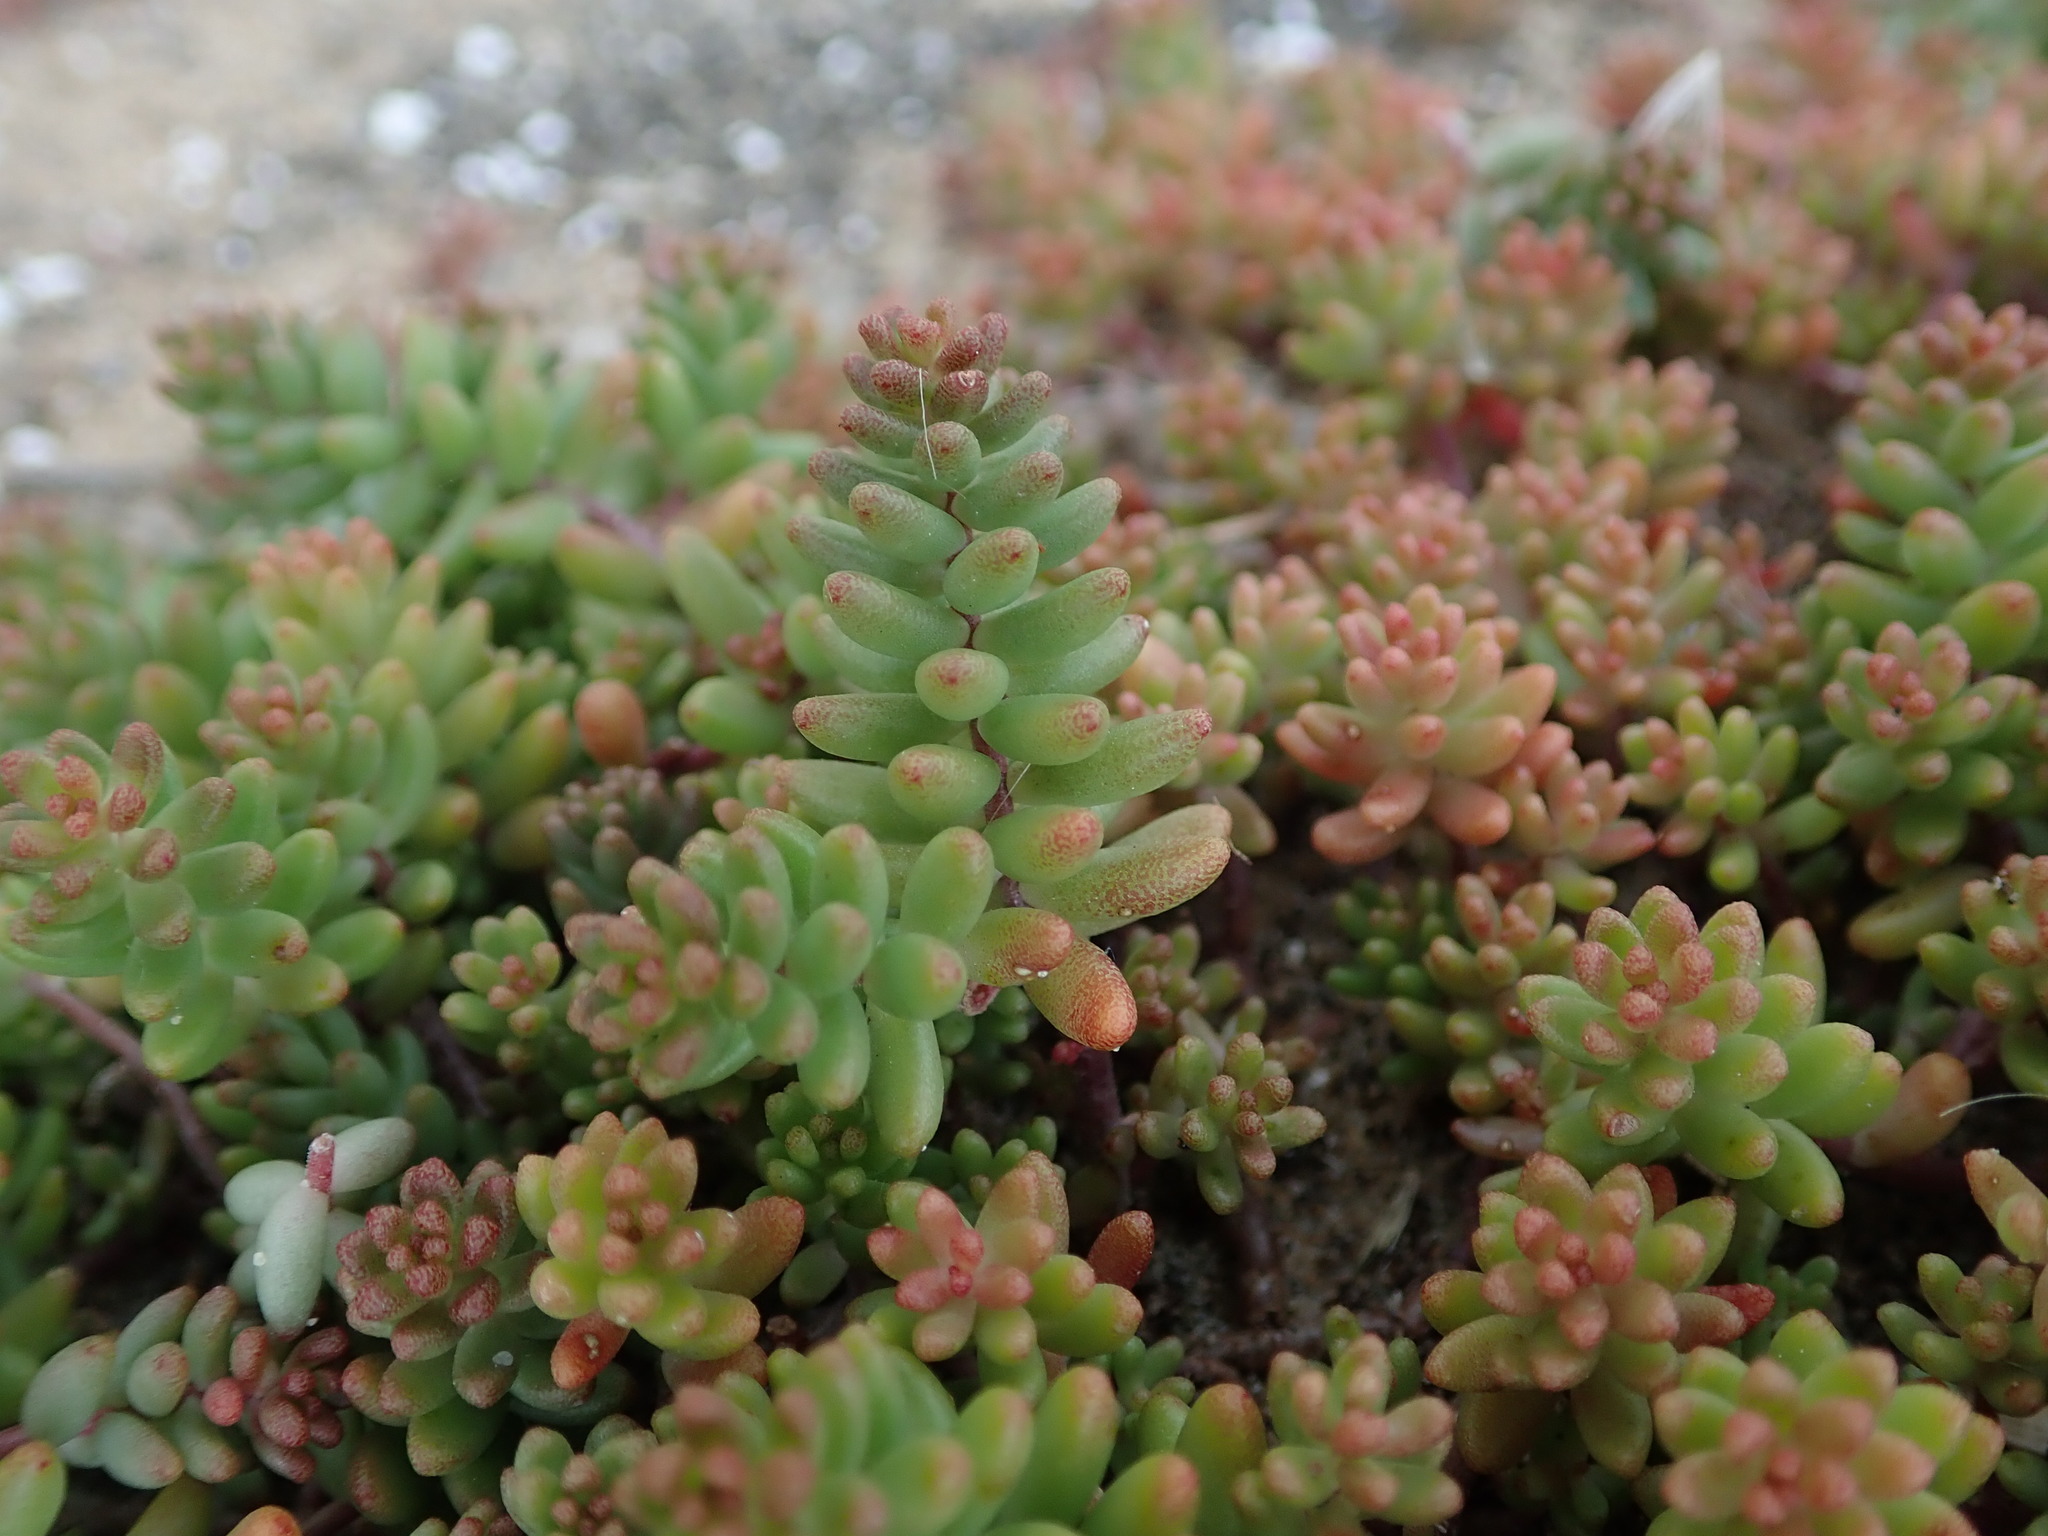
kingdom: Plantae
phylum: Tracheophyta
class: Magnoliopsida
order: Saxifragales
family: Crassulaceae
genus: Sedum
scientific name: Sedum album
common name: White stonecrop
